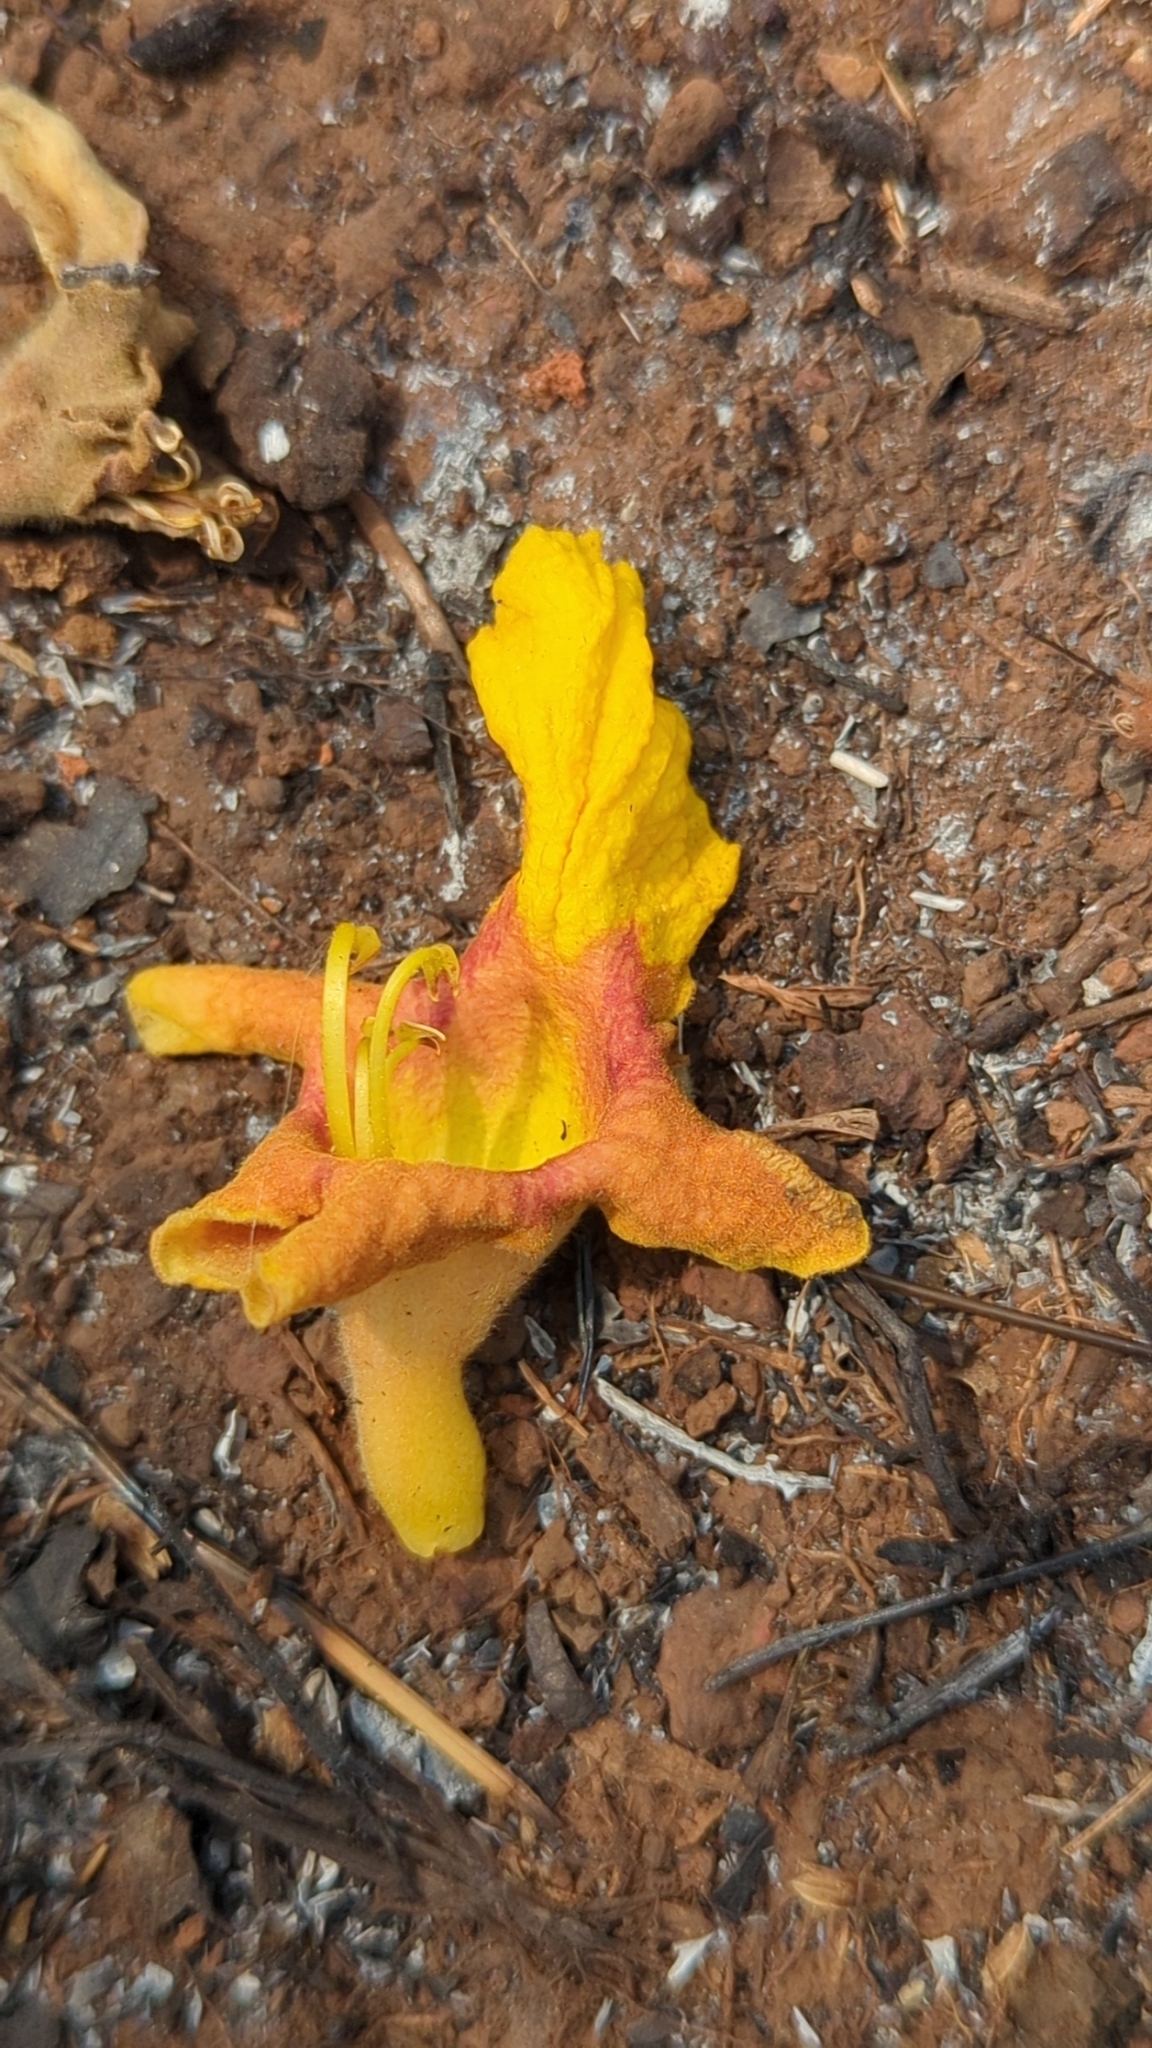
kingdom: Plantae
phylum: Tracheophyta
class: Magnoliopsida
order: Lamiales
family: Lamiaceae
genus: Gmelina
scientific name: Gmelina arborea
